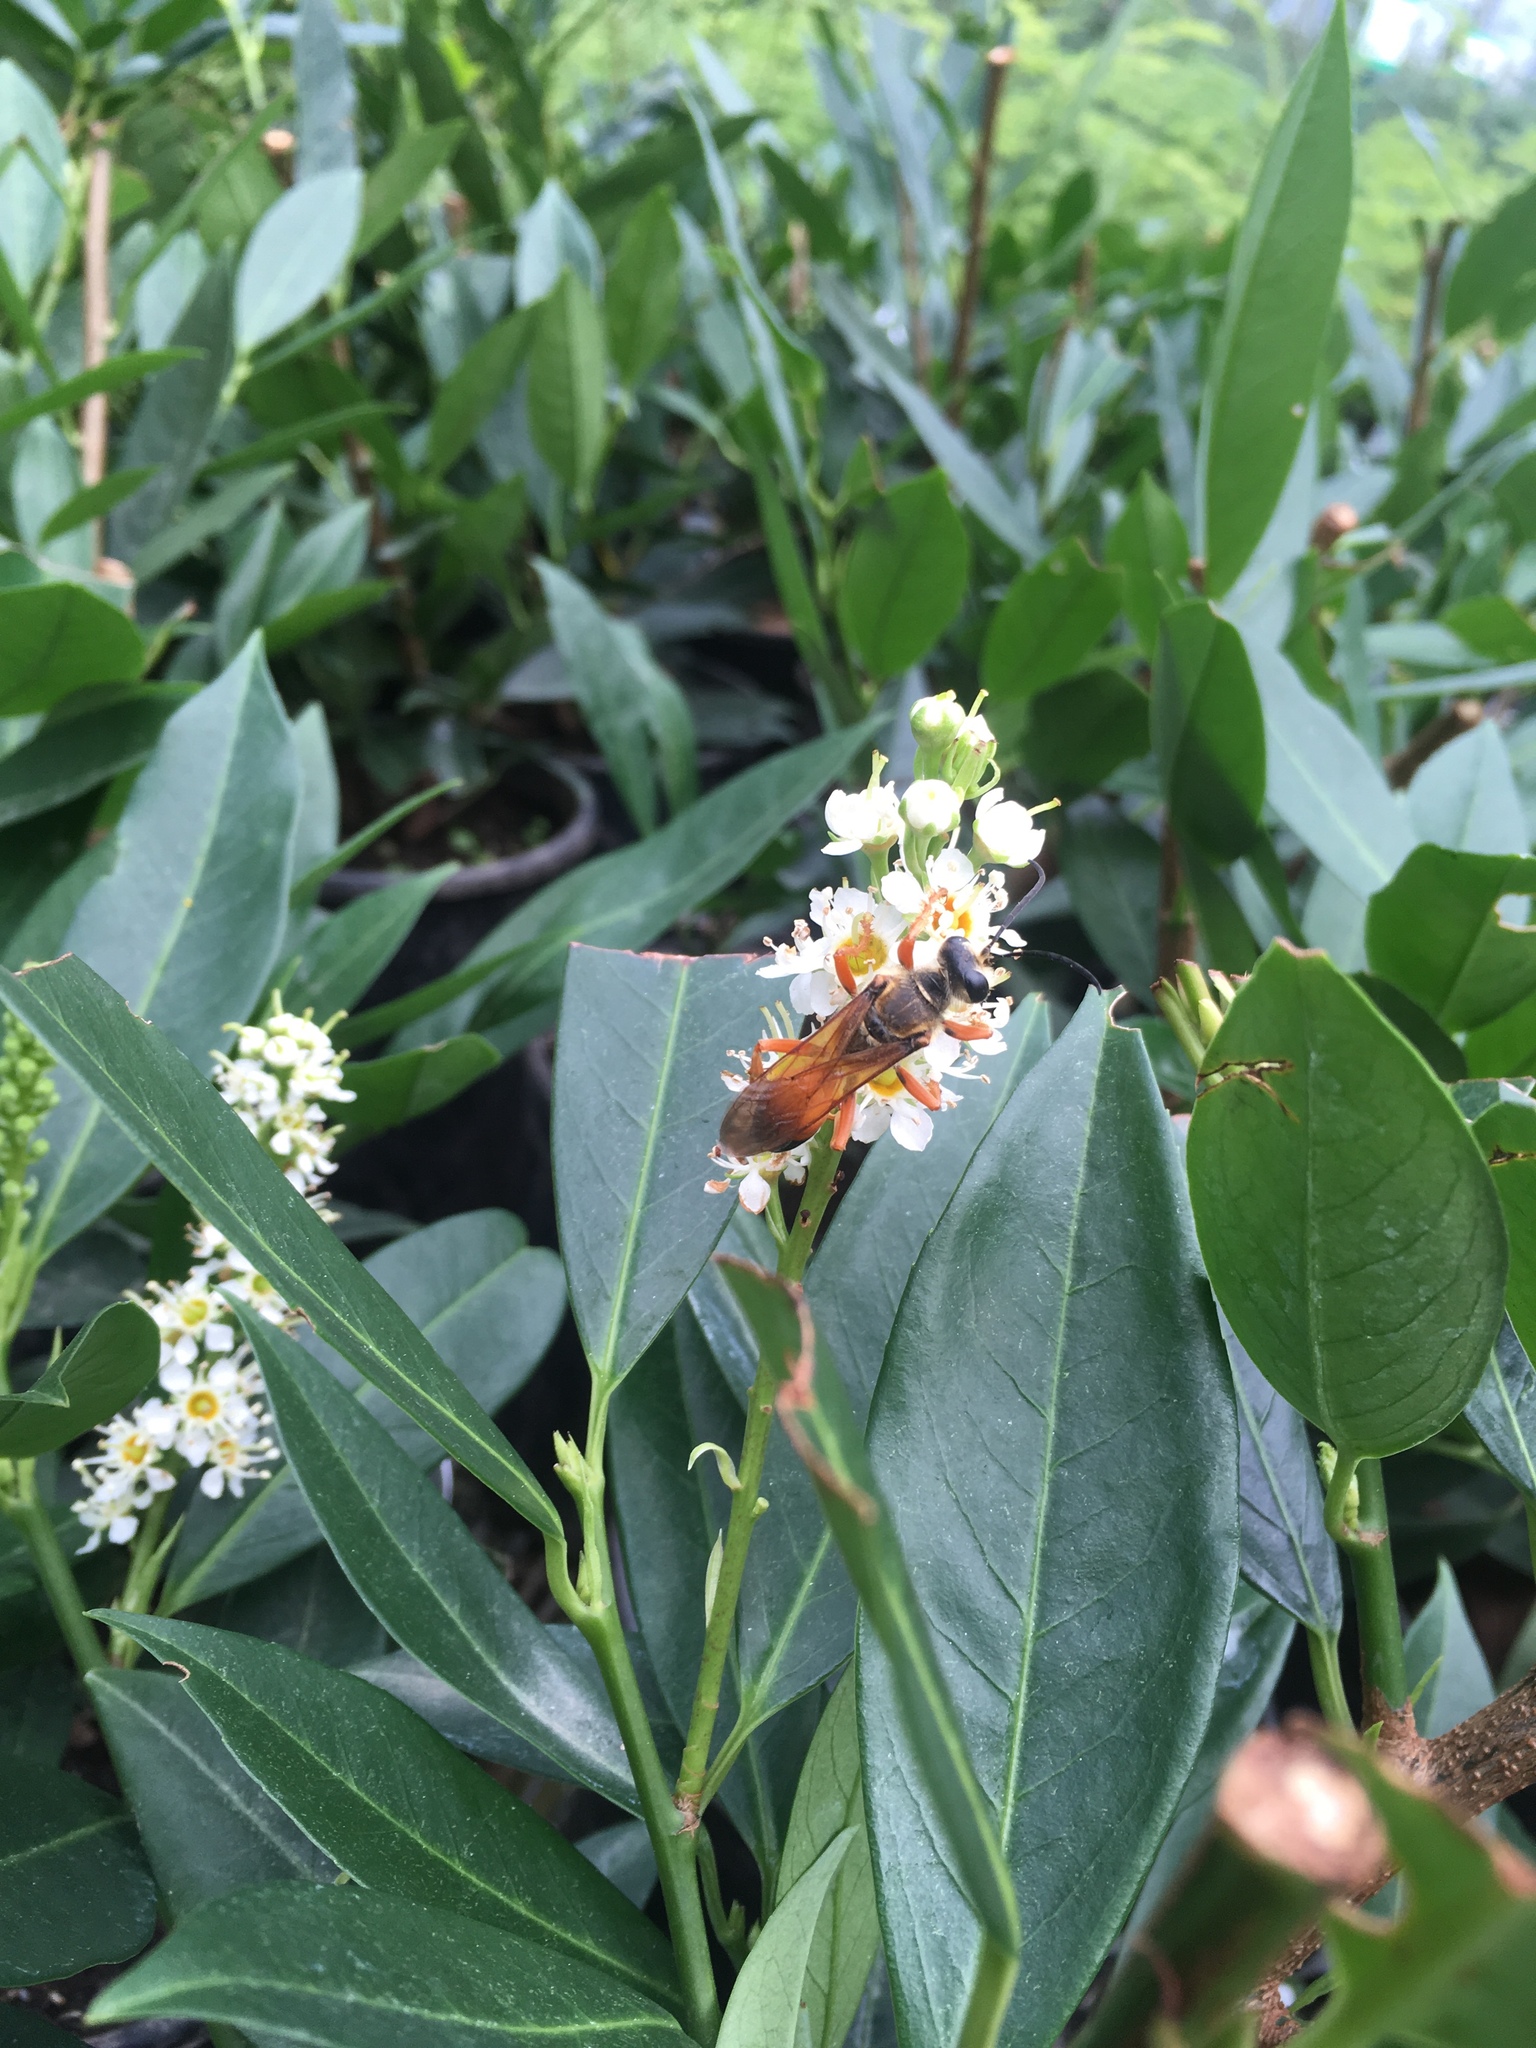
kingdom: Animalia
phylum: Arthropoda
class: Insecta
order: Hymenoptera
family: Sphecidae
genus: Sphex
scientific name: Sphex ichneumoneus
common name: Great golden digger wasp
